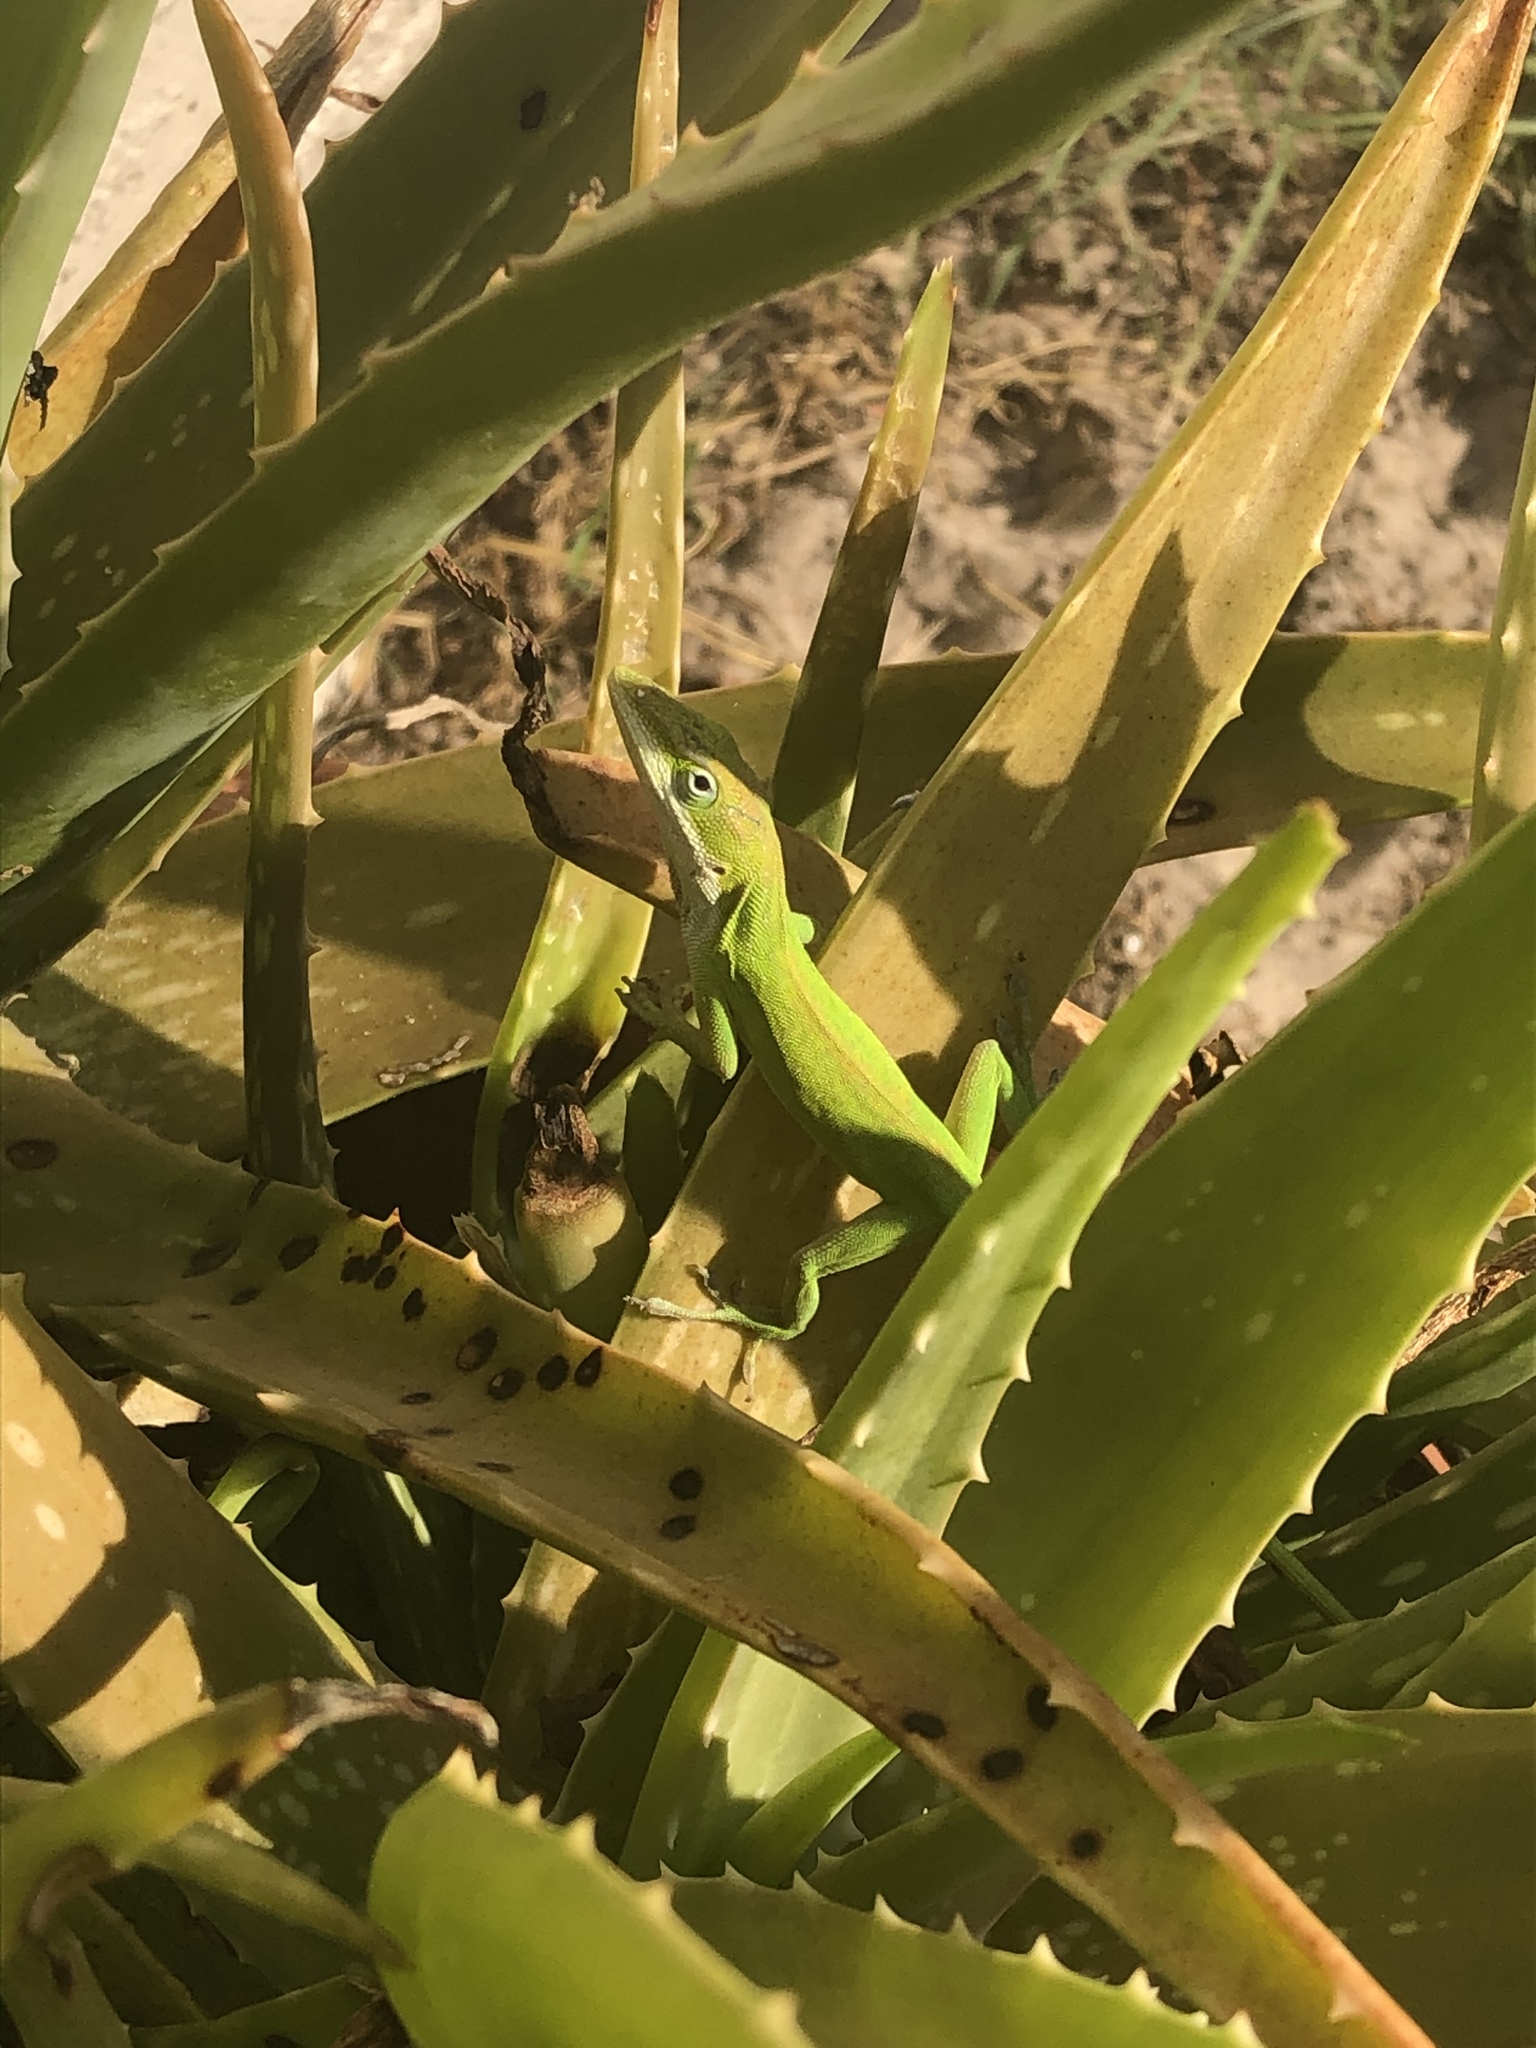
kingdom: Animalia
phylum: Chordata
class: Squamata
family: Dactyloidae
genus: Anolis
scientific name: Anolis carolinensis
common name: Green anole
